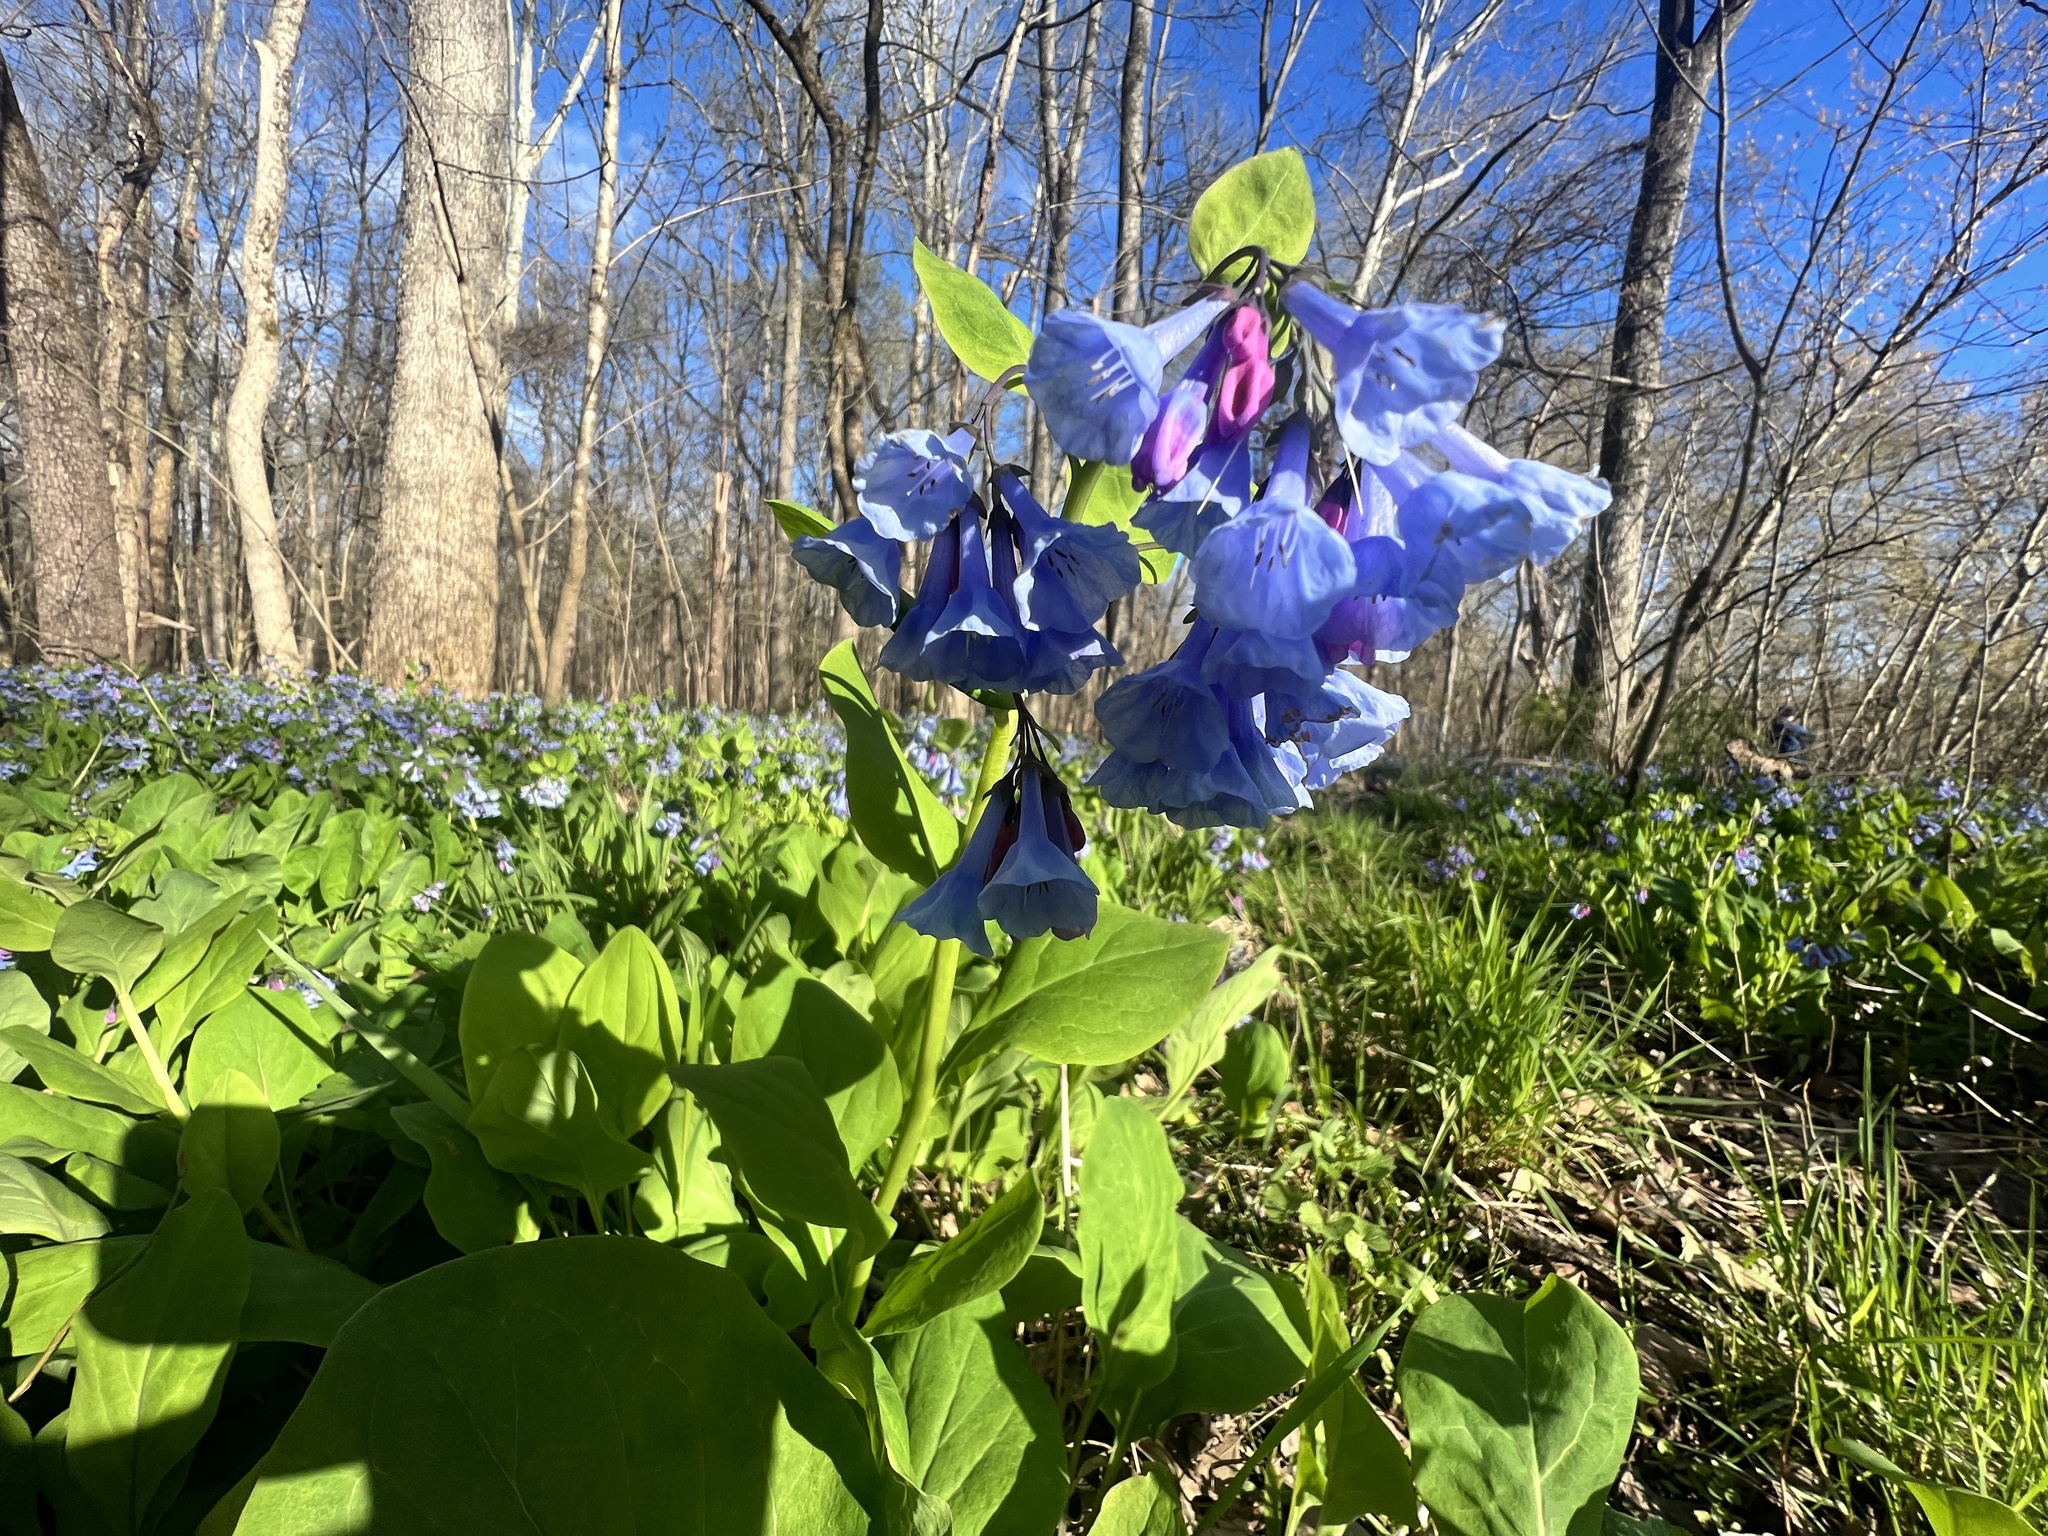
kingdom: Plantae
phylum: Tracheophyta
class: Magnoliopsida
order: Boraginales
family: Boraginaceae
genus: Mertensia
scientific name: Mertensia virginica
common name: Virginia bluebells
